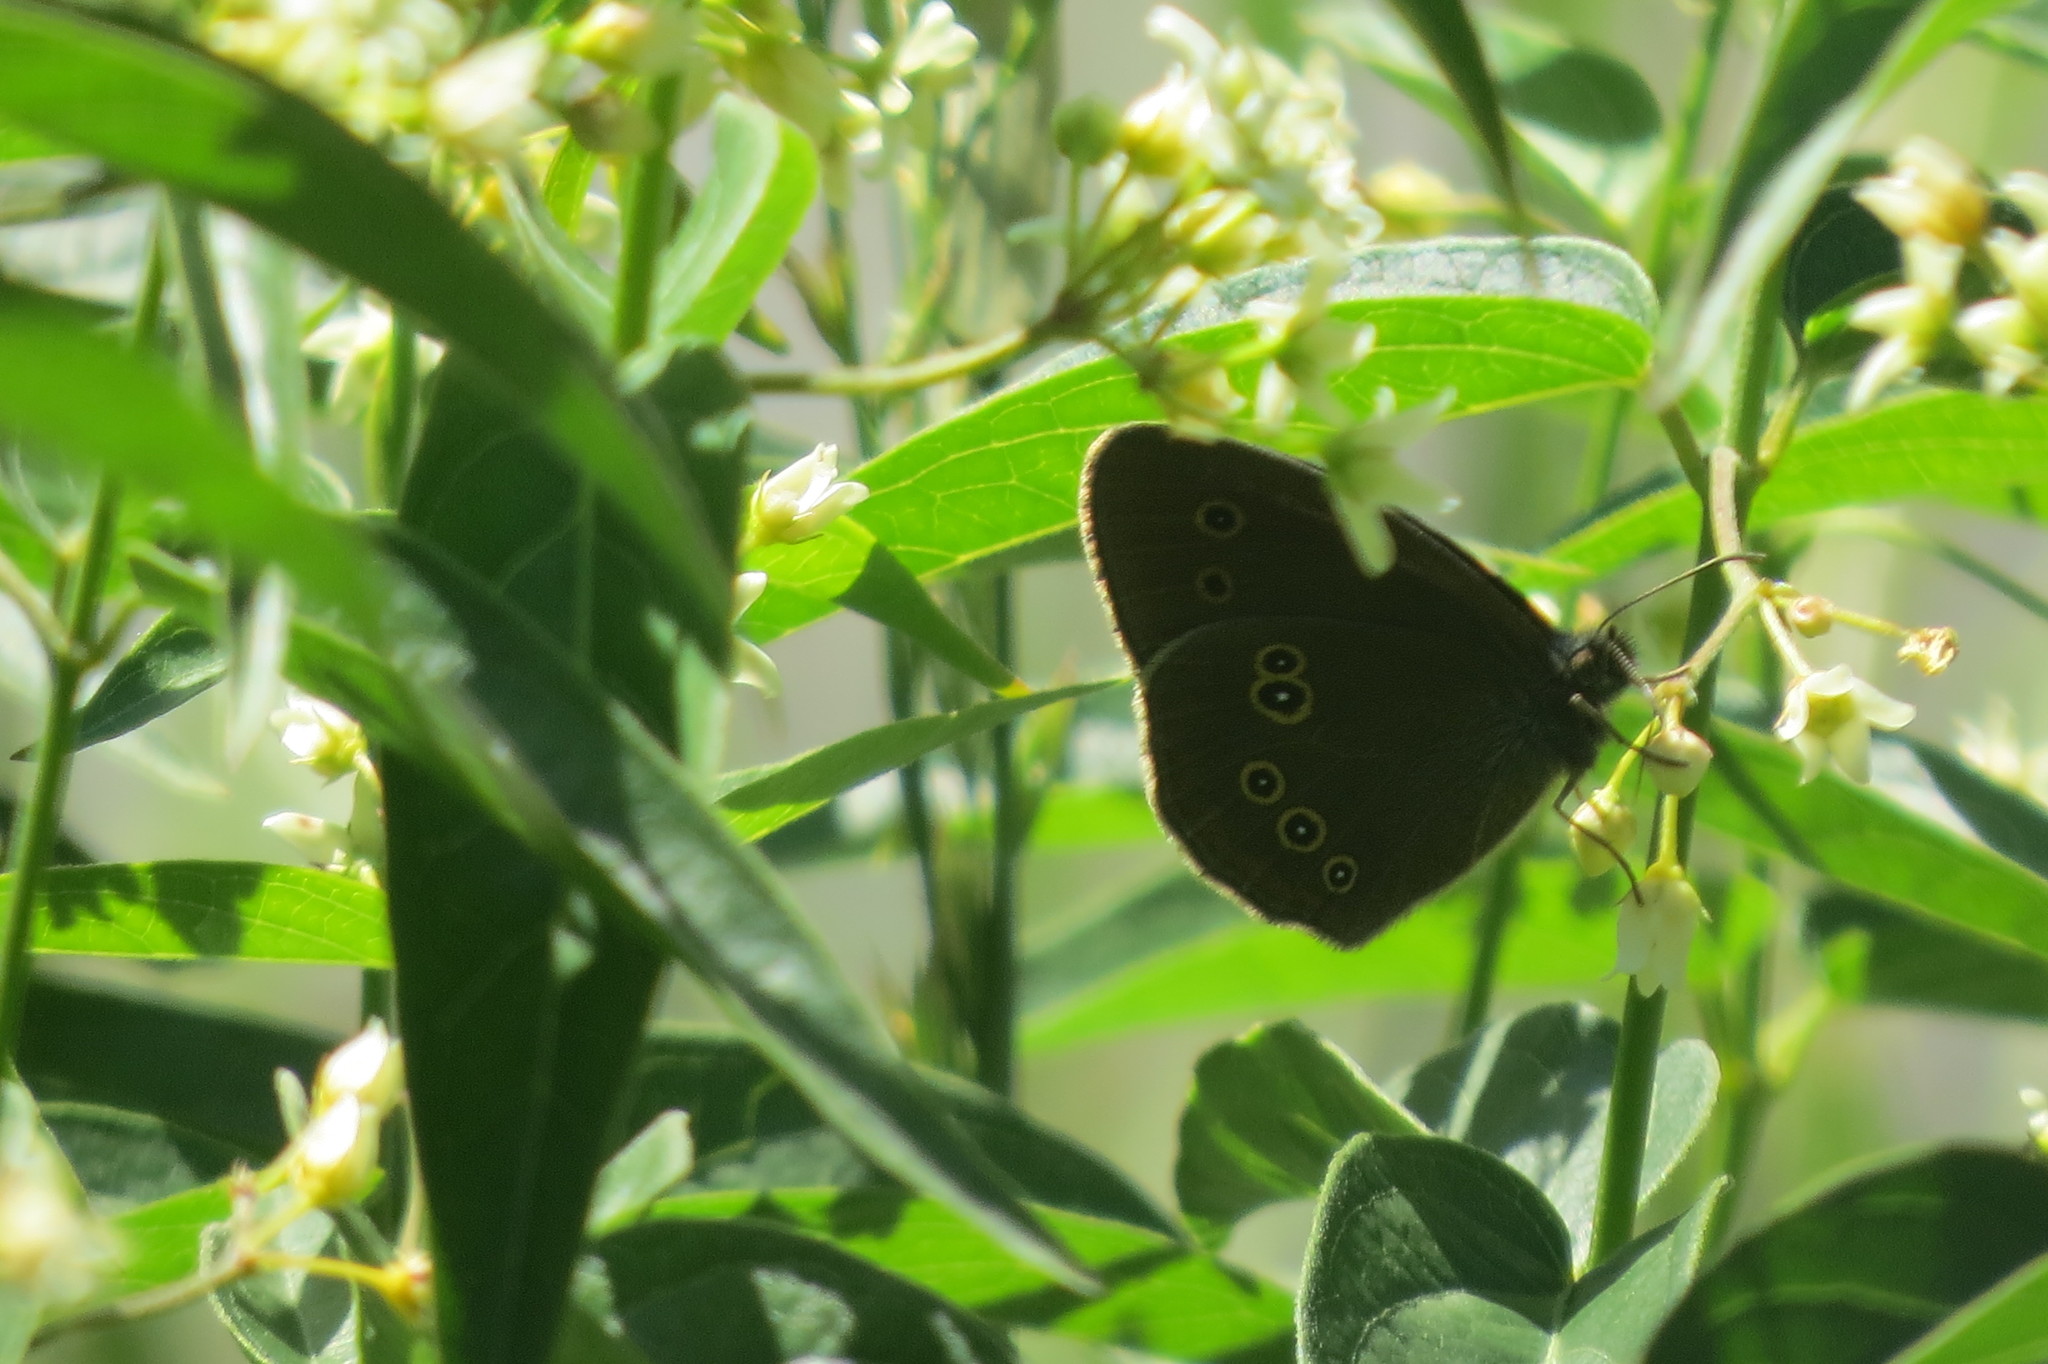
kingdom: Animalia
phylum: Arthropoda
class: Insecta
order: Lepidoptera
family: Nymphalidae
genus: Aphantopus
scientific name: Aphantopus hyperantus
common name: Ringlet
